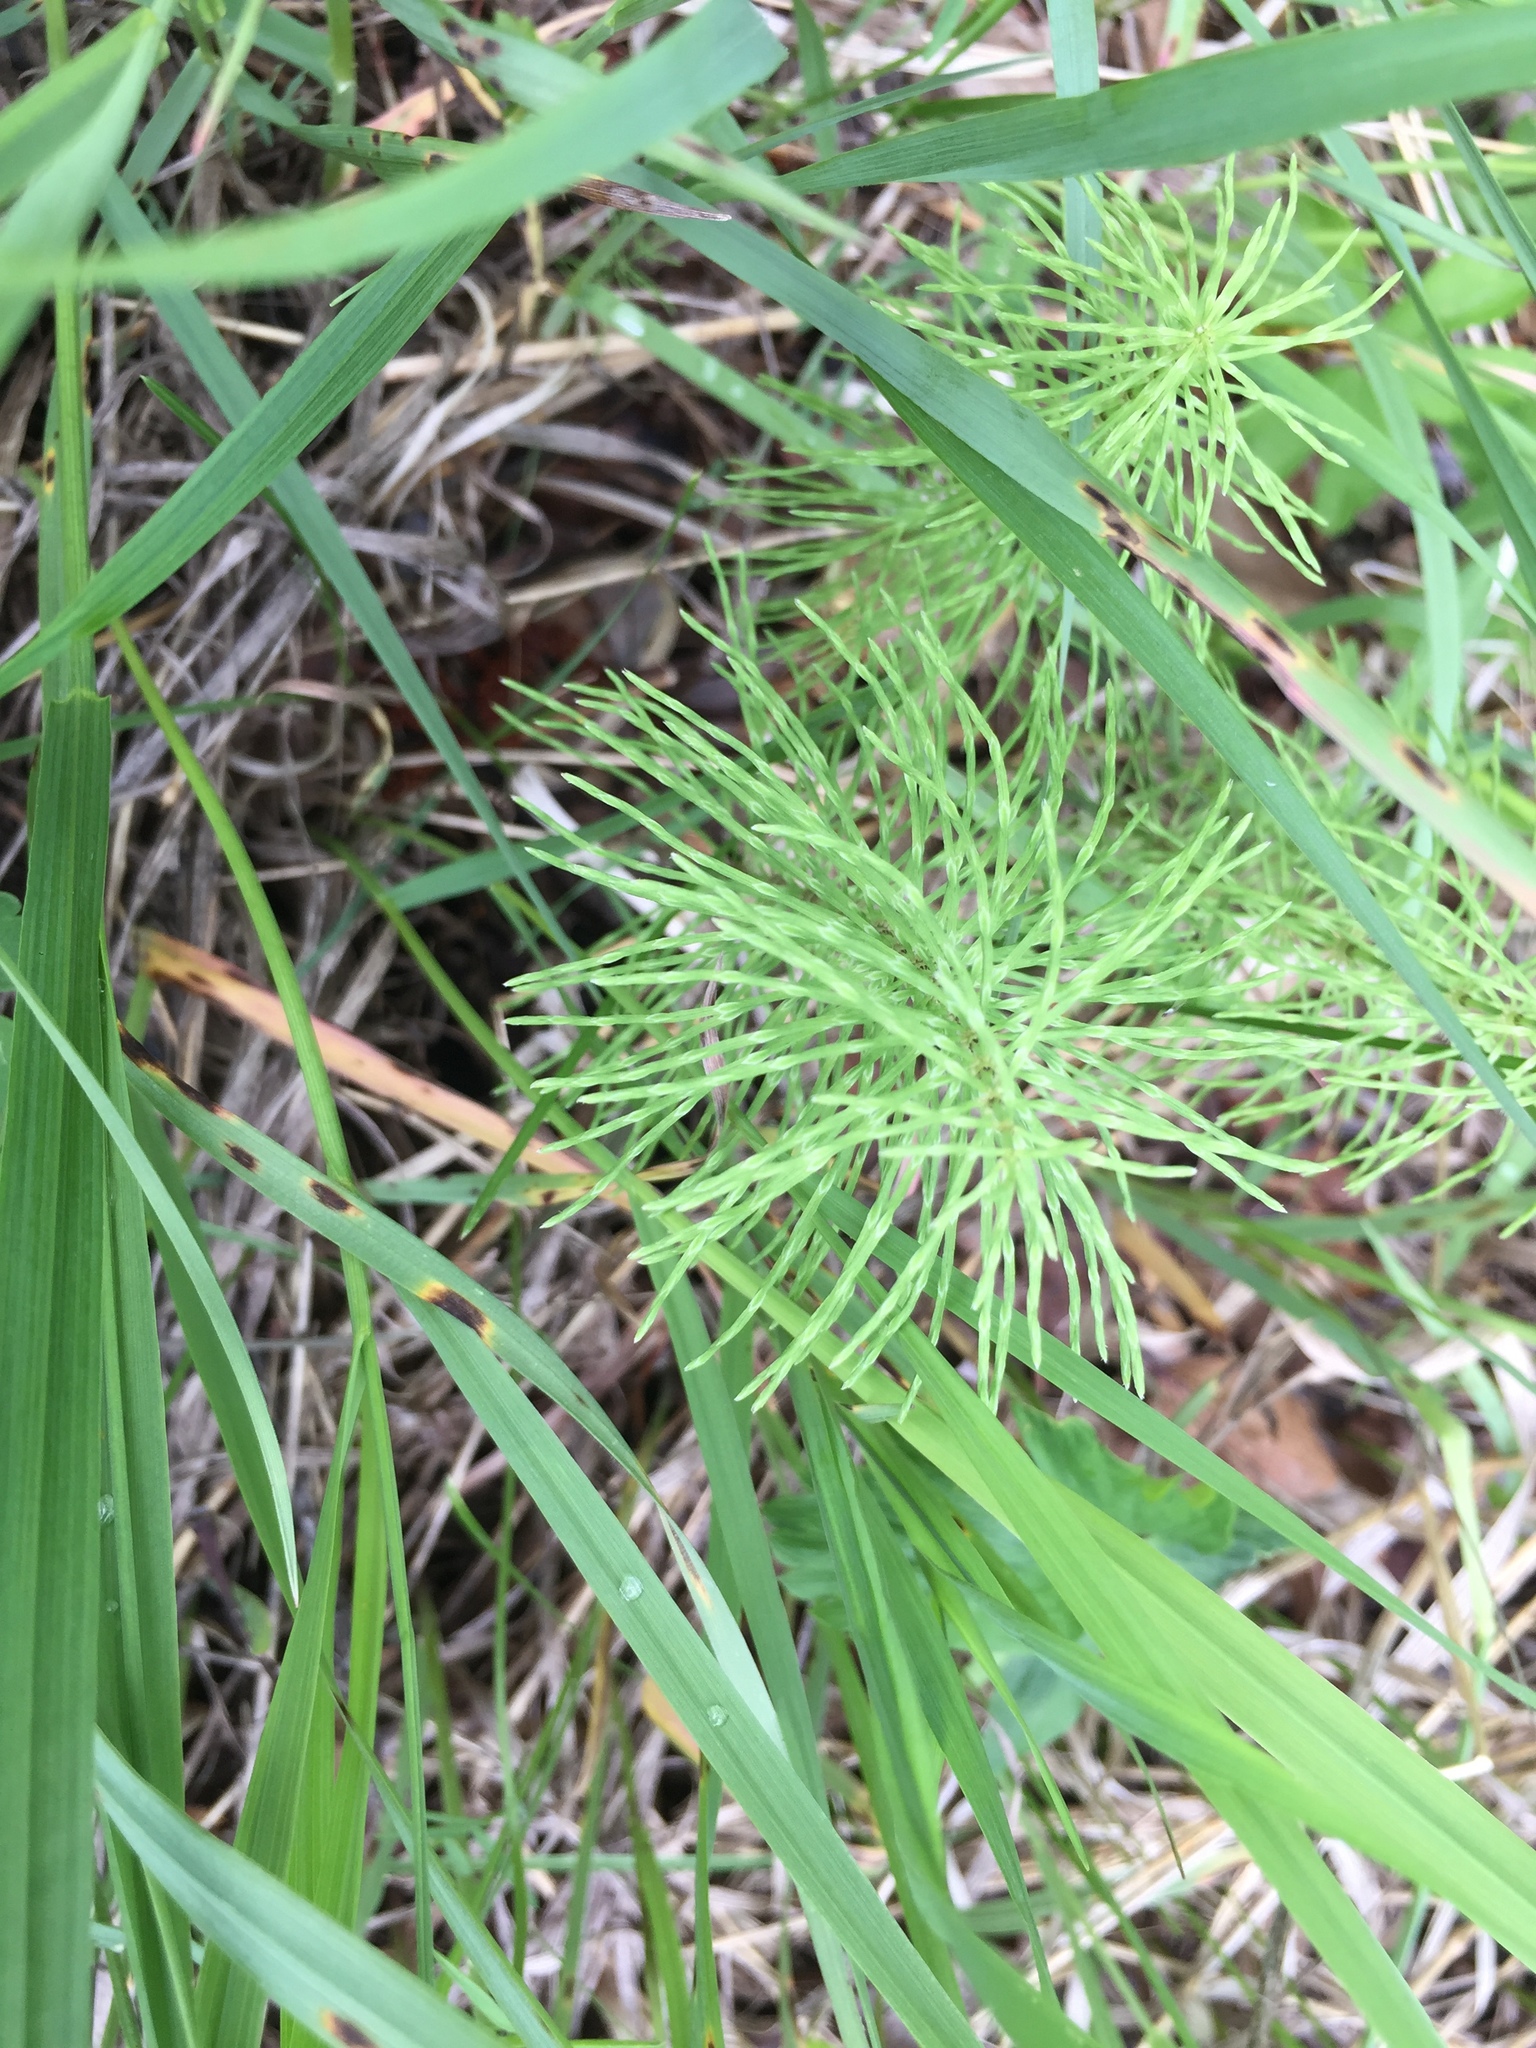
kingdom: Plantae
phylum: Tracheophyta
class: Polypodiopsida
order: Equisetales
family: Equisetaceae
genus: Equisetum
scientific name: Equisetum arvense
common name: Field horsetail
